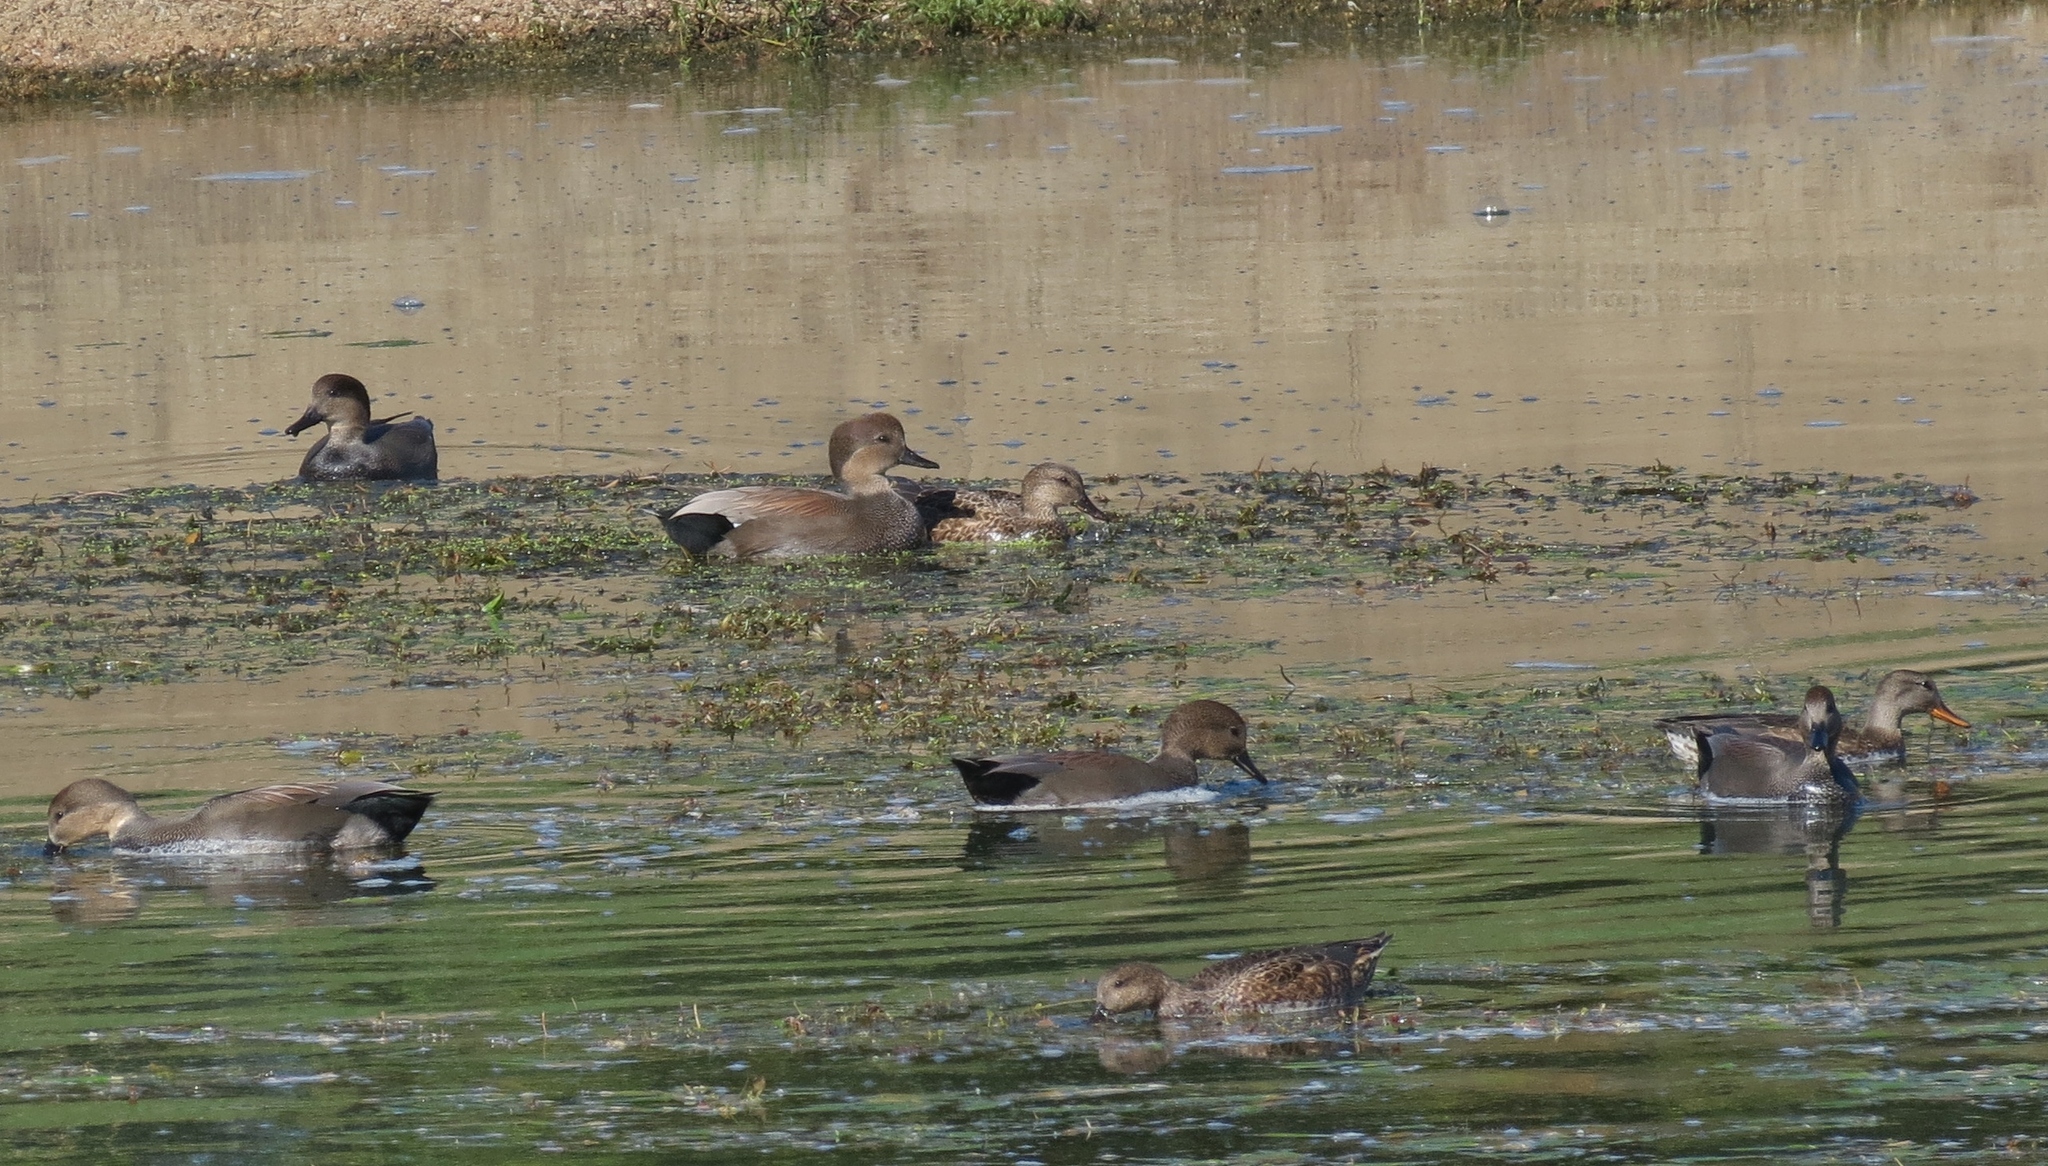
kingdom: Animalia
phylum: Chordata
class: Aves
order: Anseriformes
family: Anatidae
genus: Mareca
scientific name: Mareca strepera
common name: Gadwall
